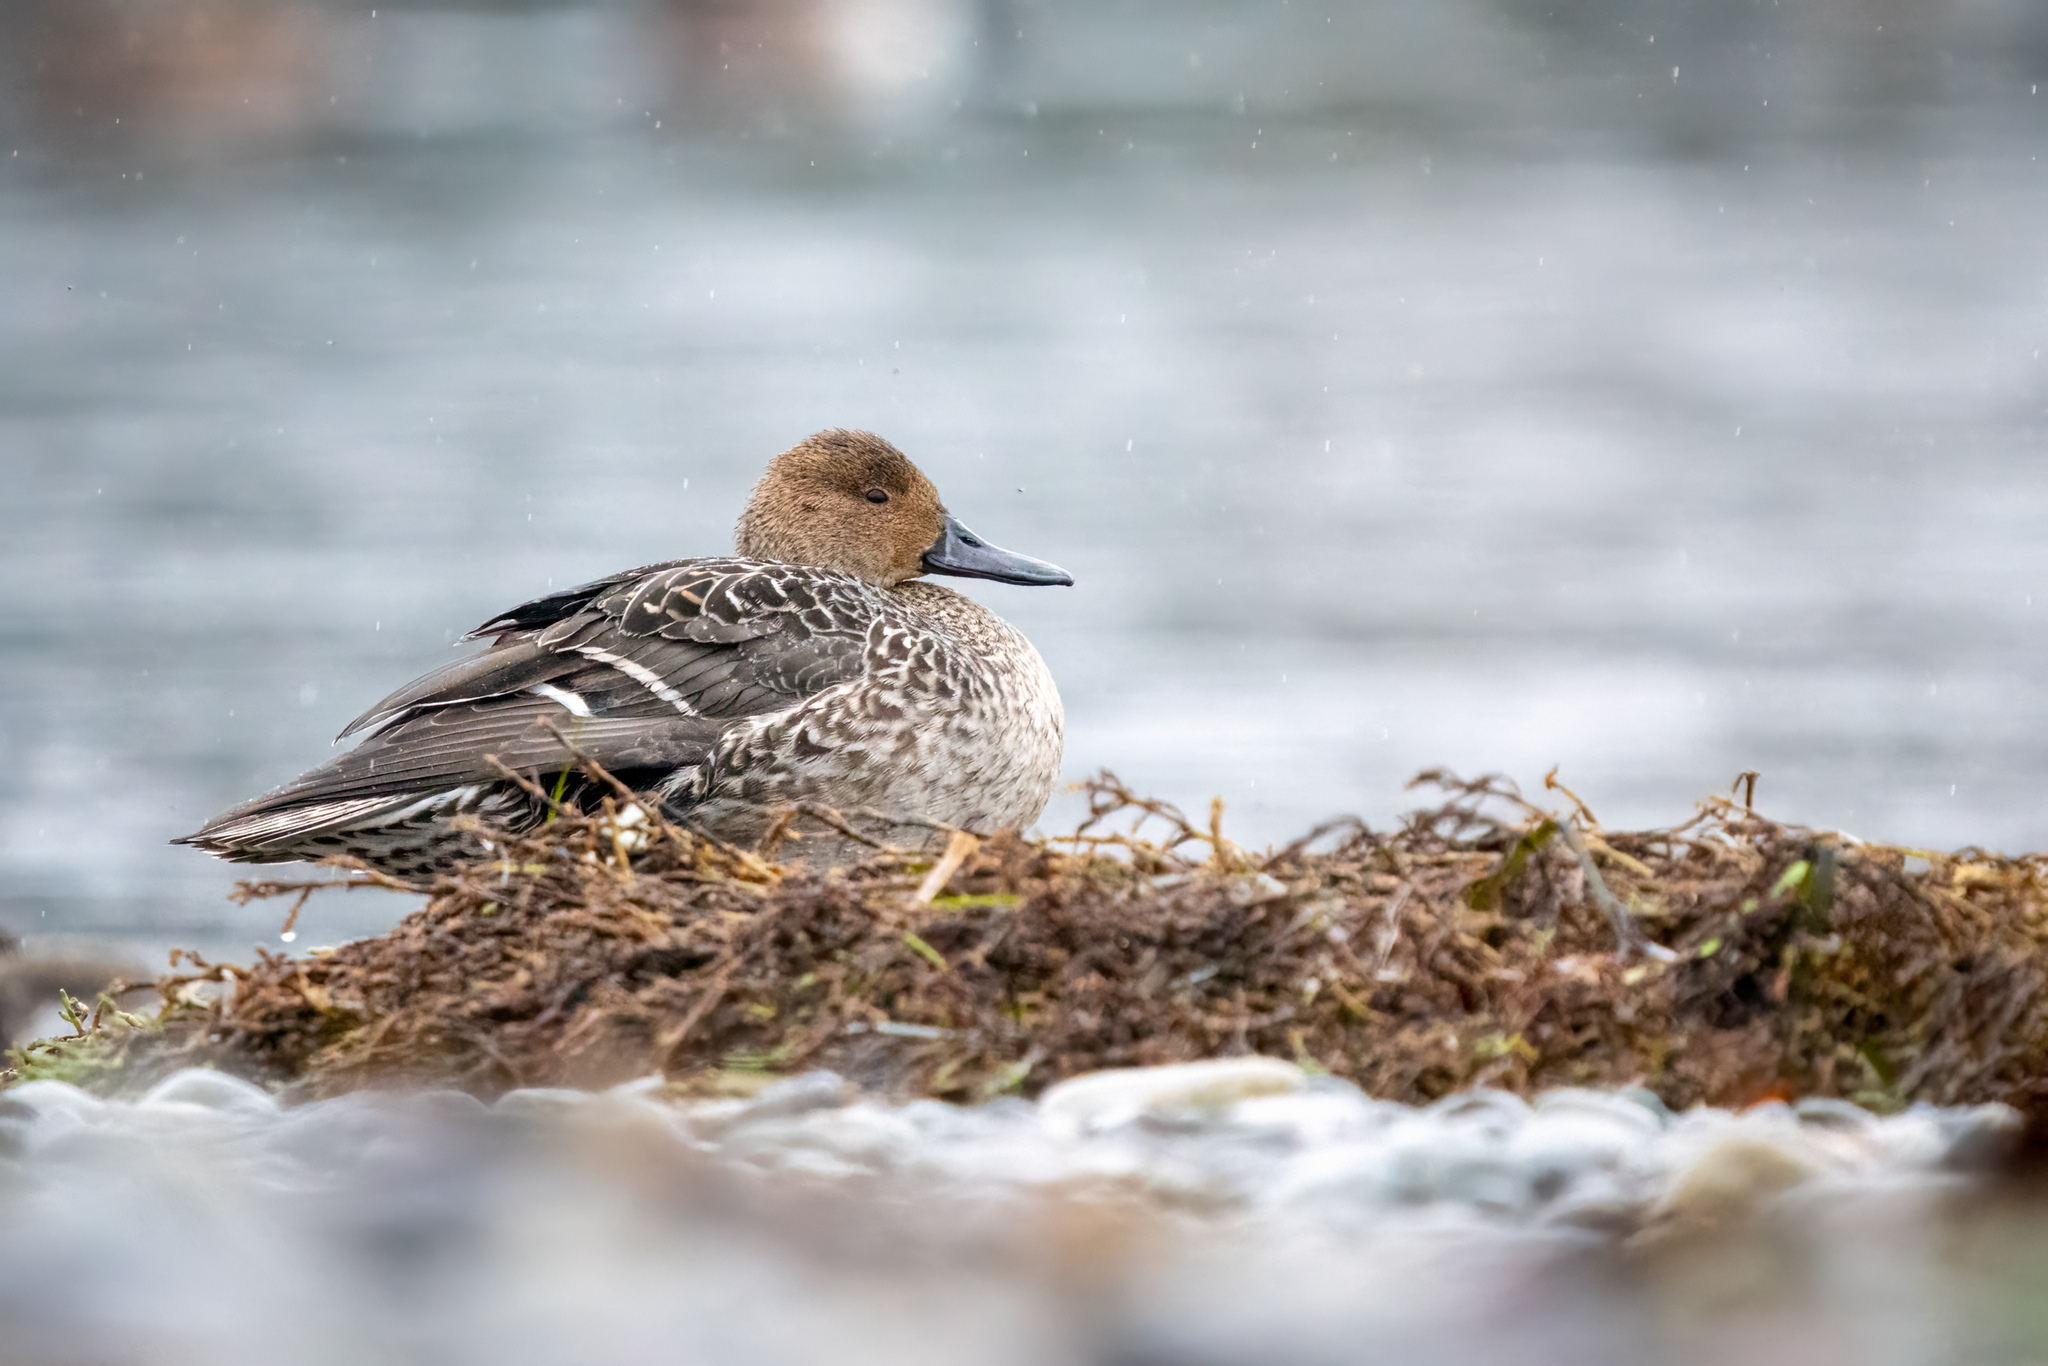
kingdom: Animalia
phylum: Chordata
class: Aves
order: Anseriformes
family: Anatidae
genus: Anas
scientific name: Anas acuta
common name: Northern pintail
